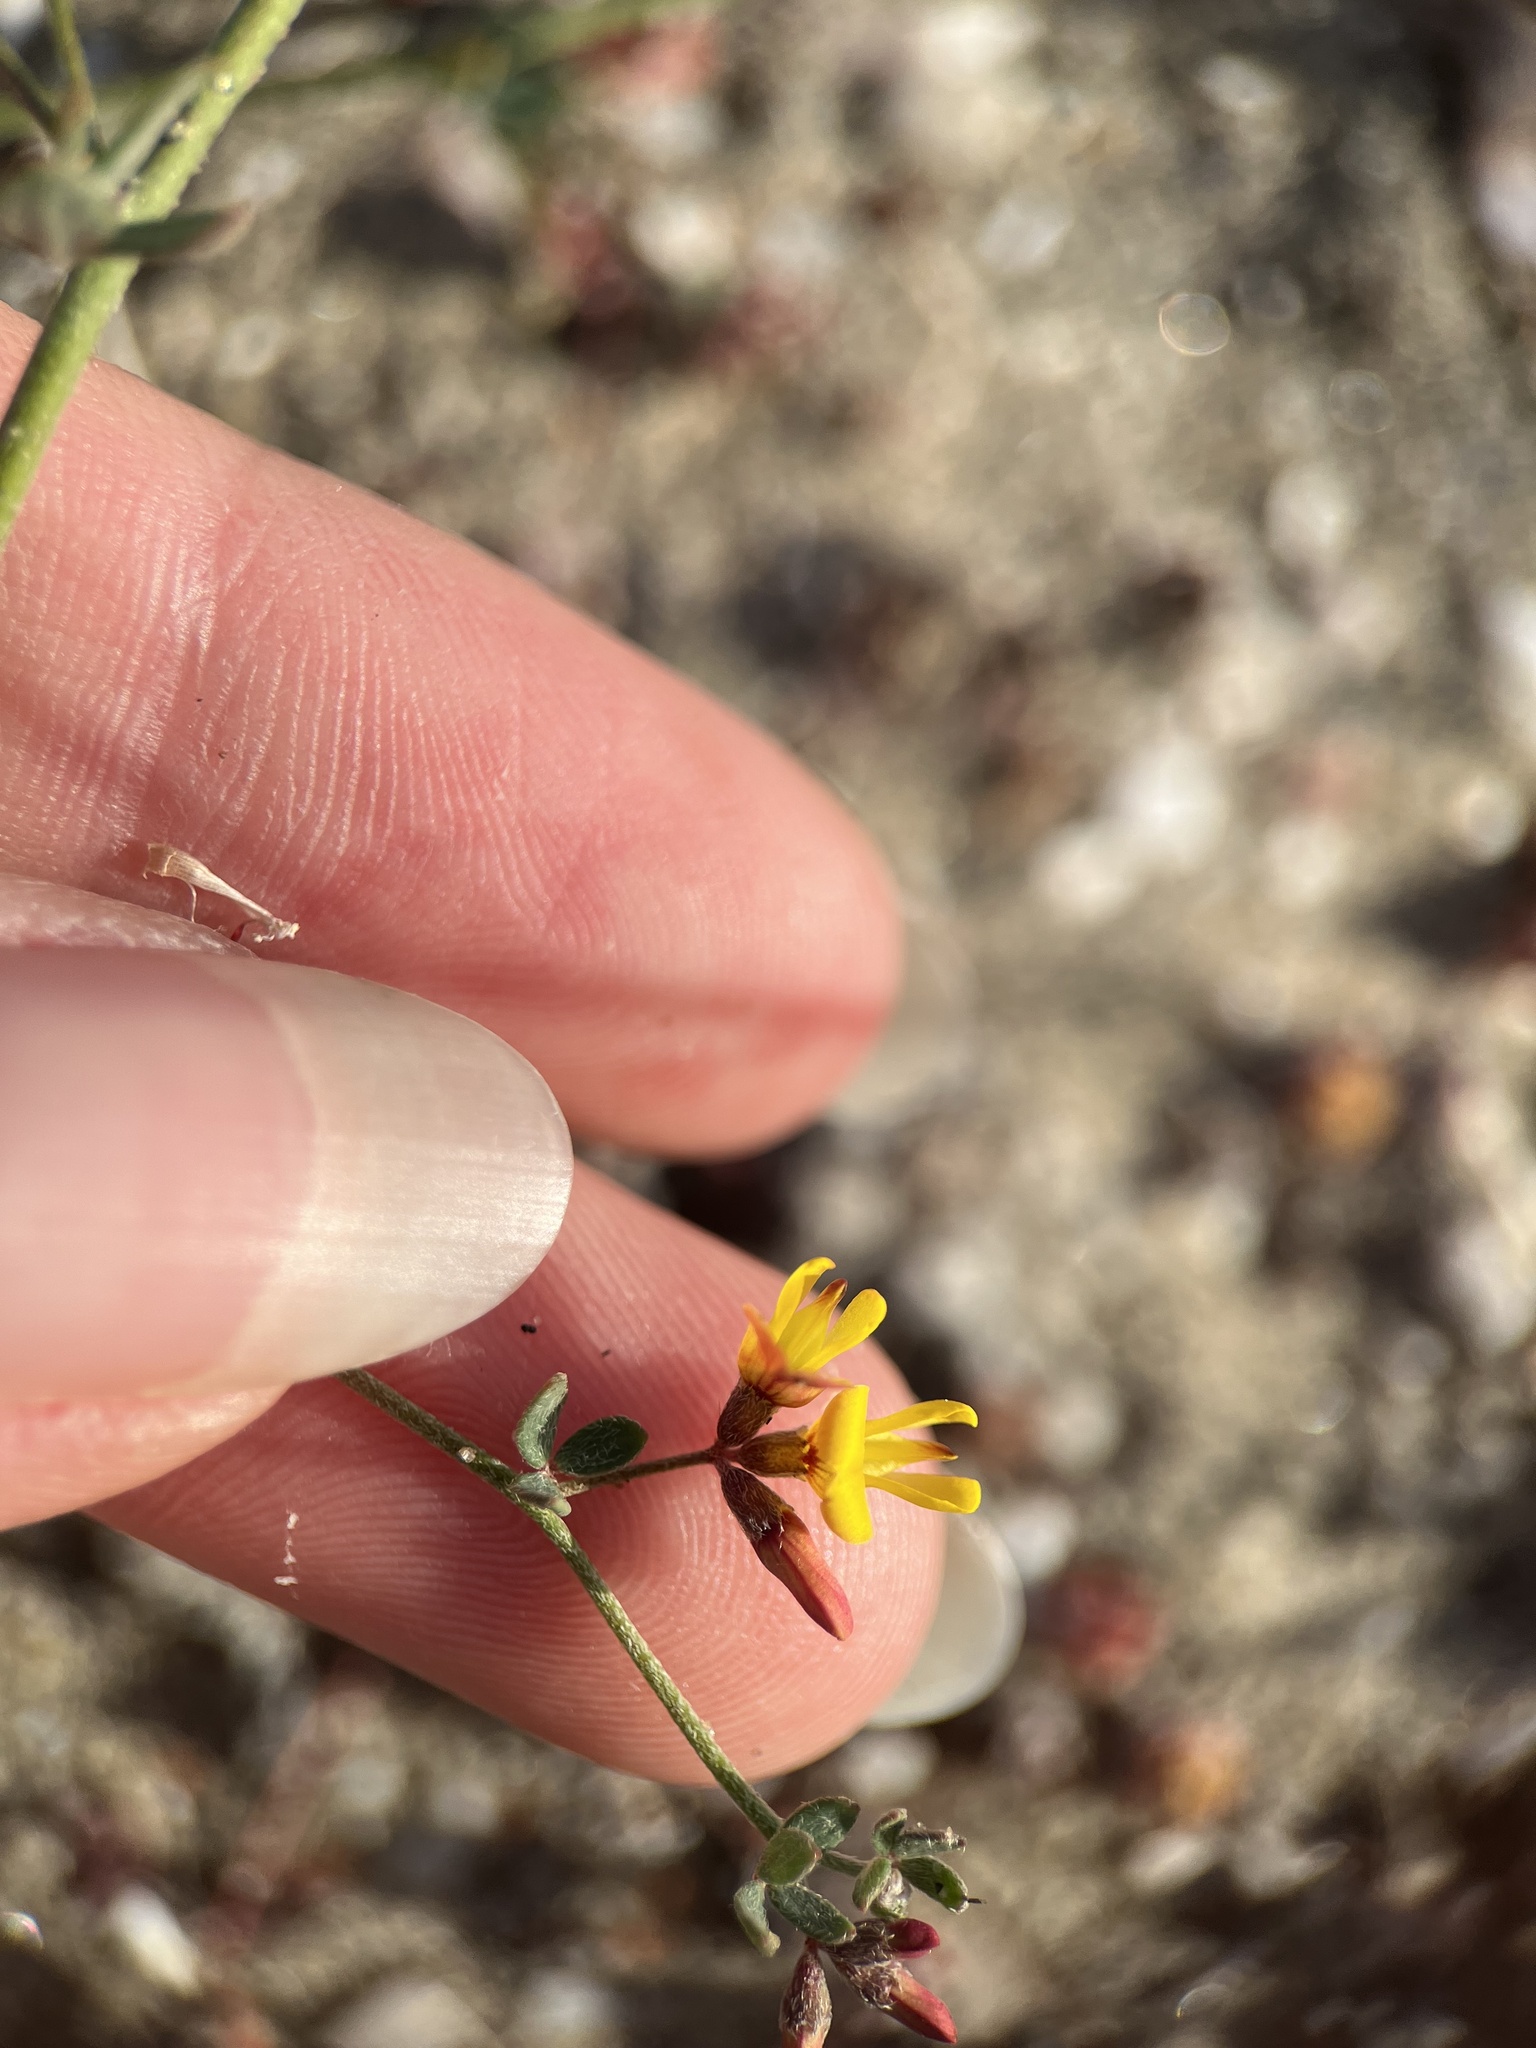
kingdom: Plantae
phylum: Tracheophyta
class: Magnoliopsida
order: Fabales
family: Fabaceae
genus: Acmispon
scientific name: Acmispon prostratus
